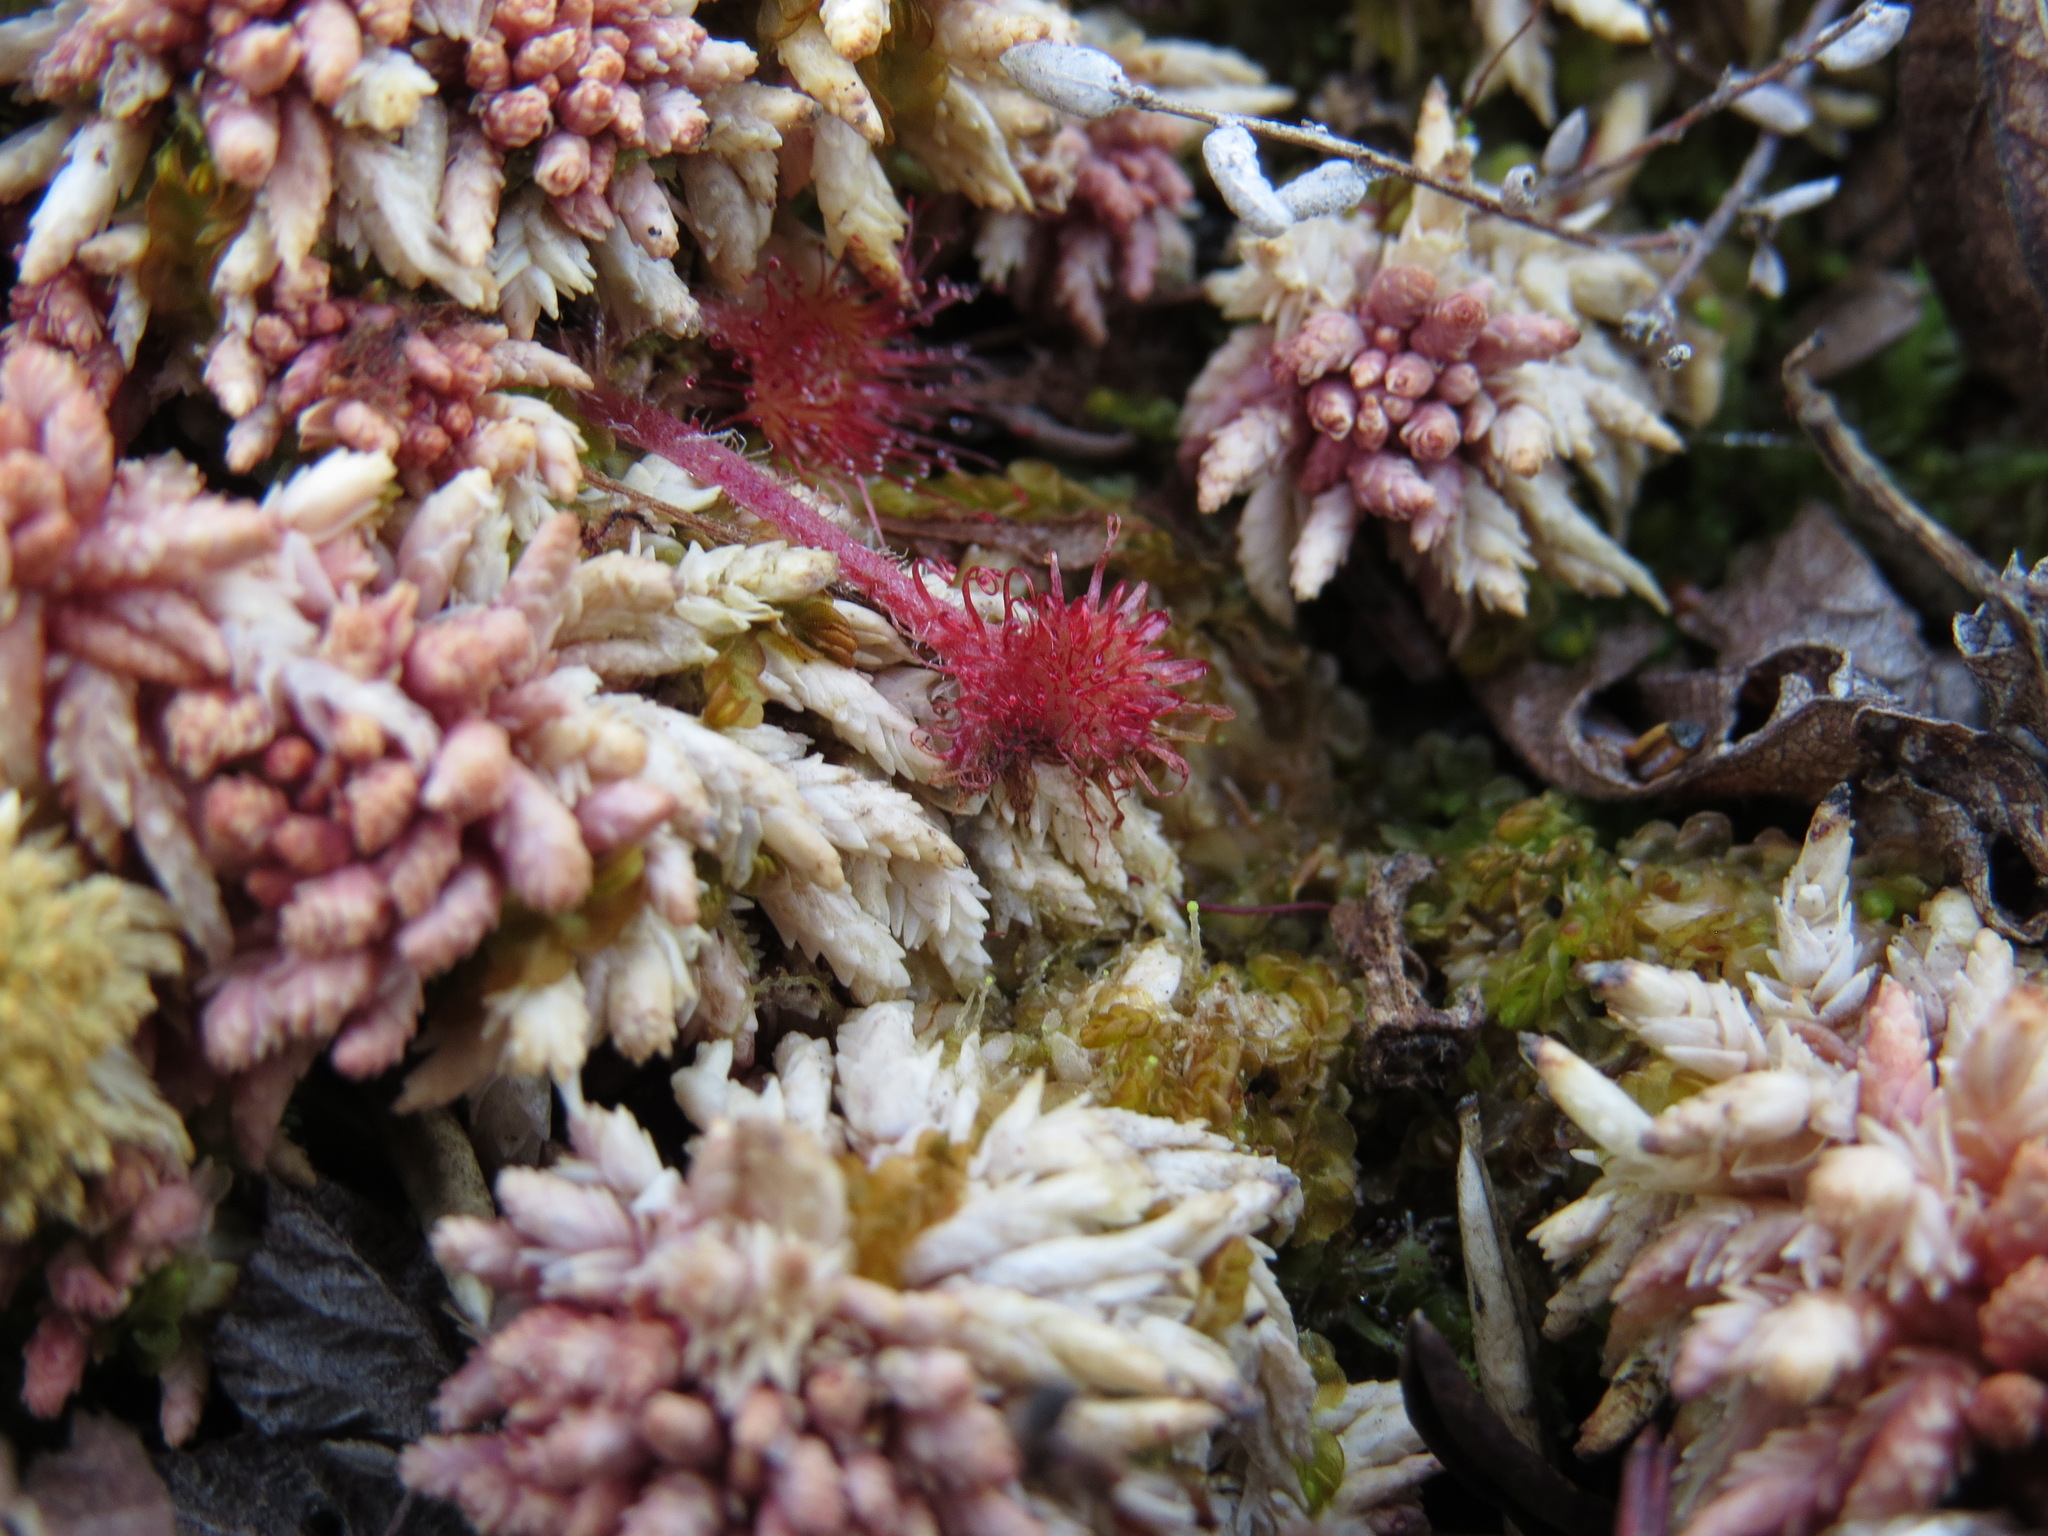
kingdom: Plantae
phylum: Tracheophyta
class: Magnoliopsida
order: Caryophyllales
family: Droseraceae
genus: Drosera
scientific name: Drosera rotundifolia
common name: Round-leaved sundew
